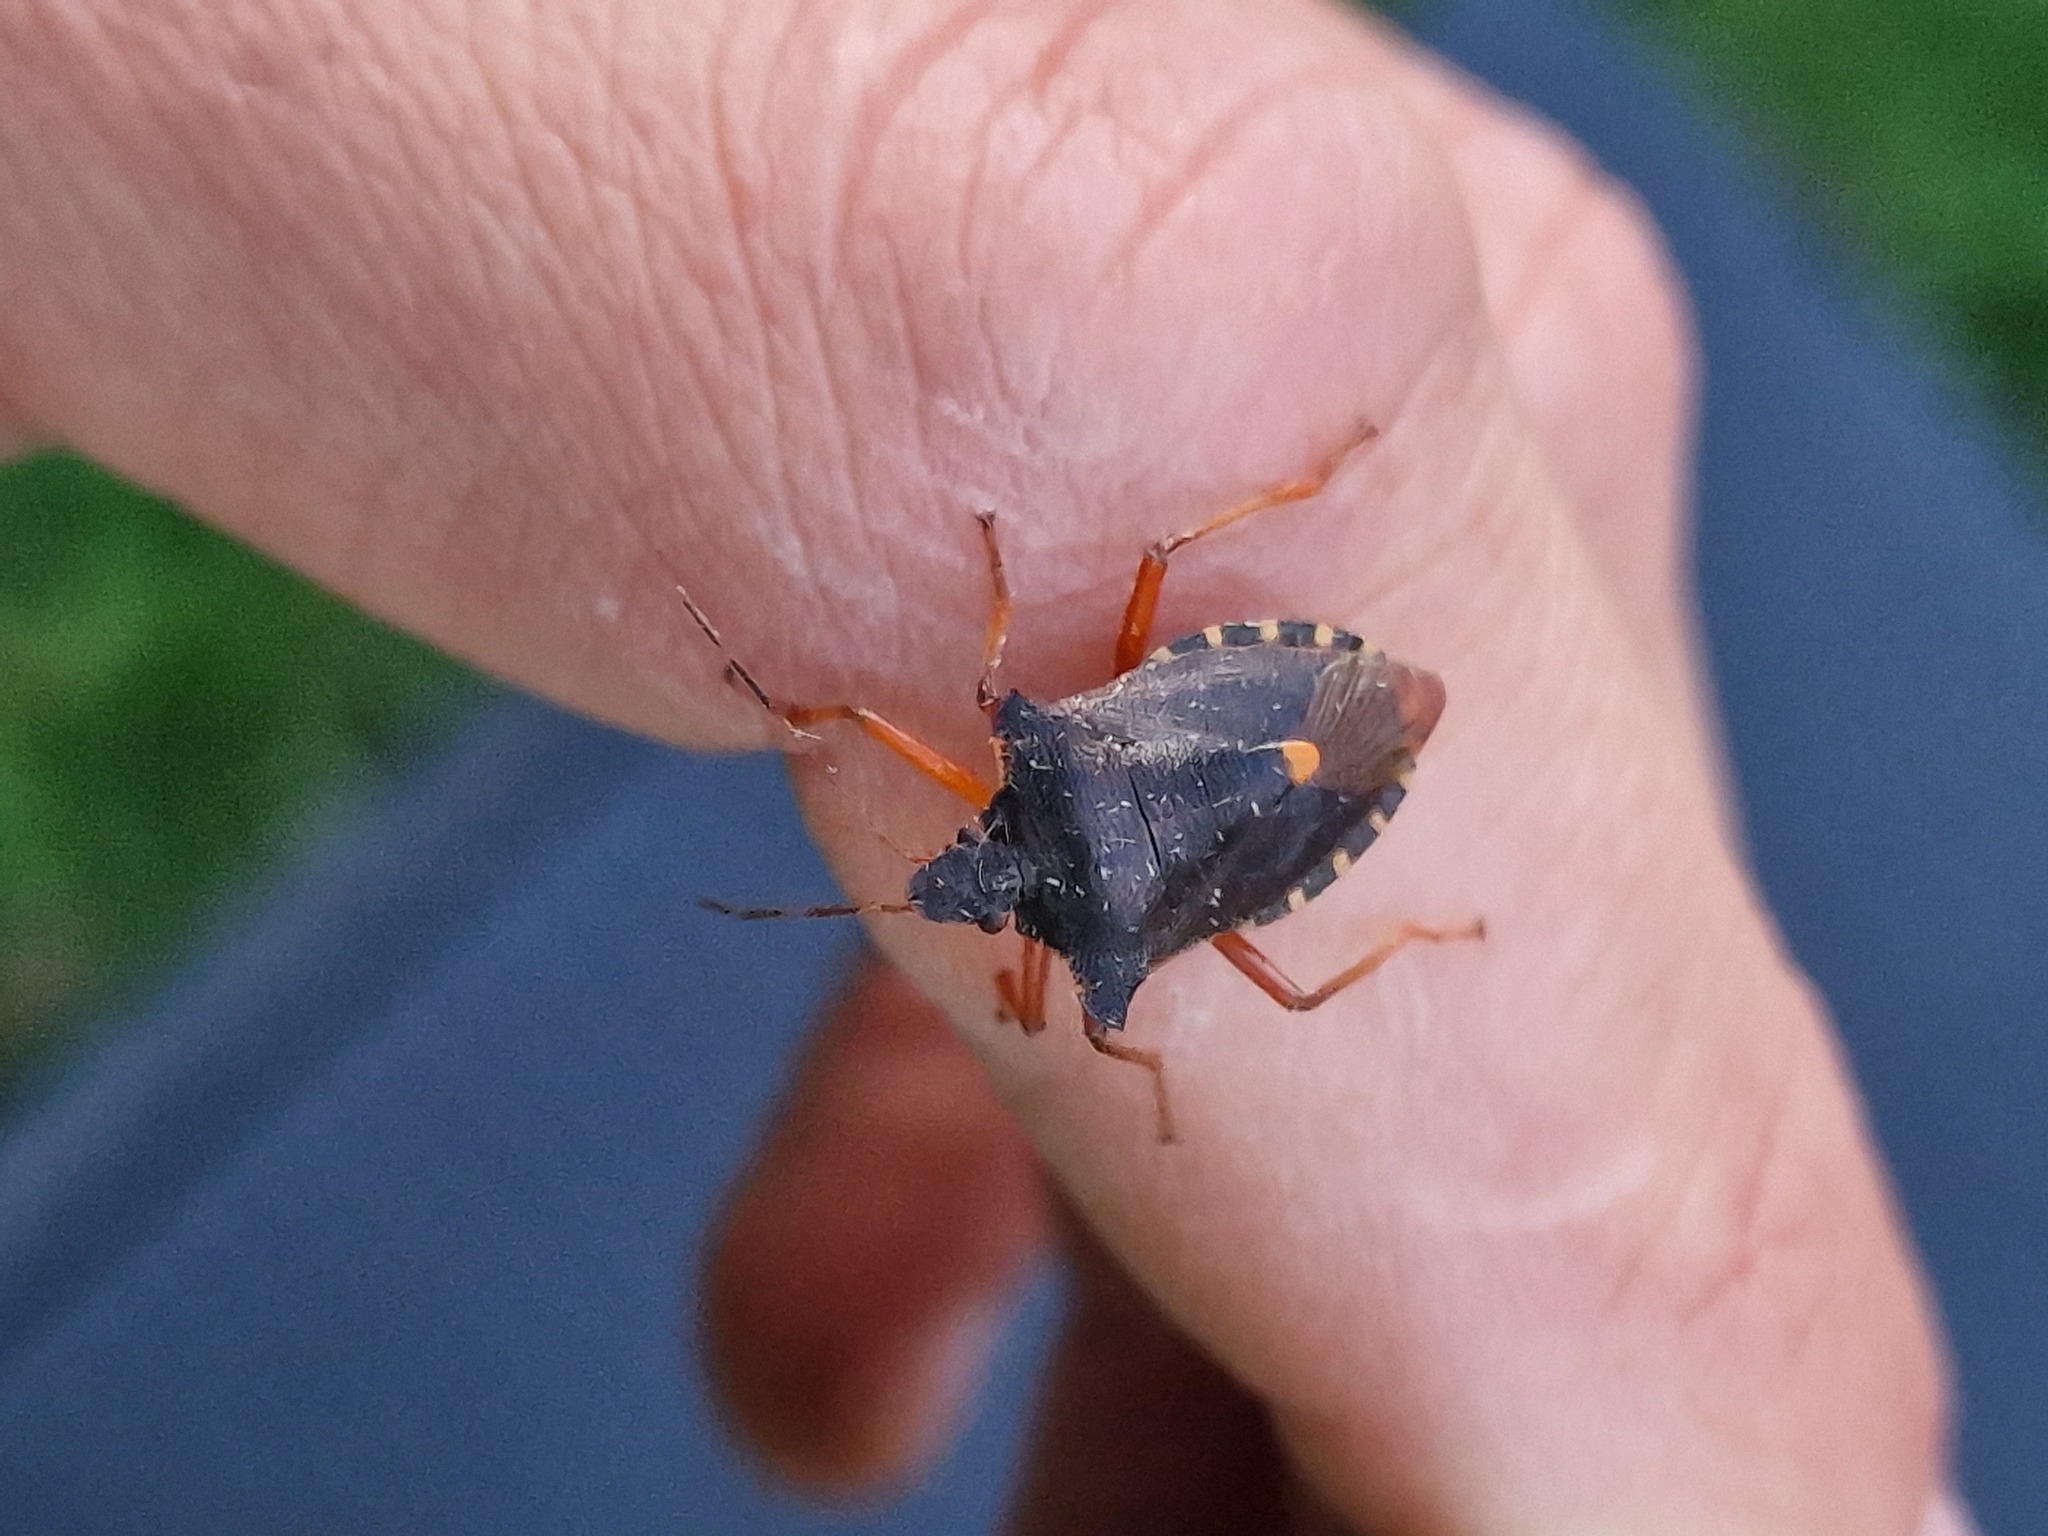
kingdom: Animalia
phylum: Arthropoda
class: Insecta
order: Hemiptera
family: Pentatomidae
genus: Pentatoma
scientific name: Pentatoma rufipes
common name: Forest bug
